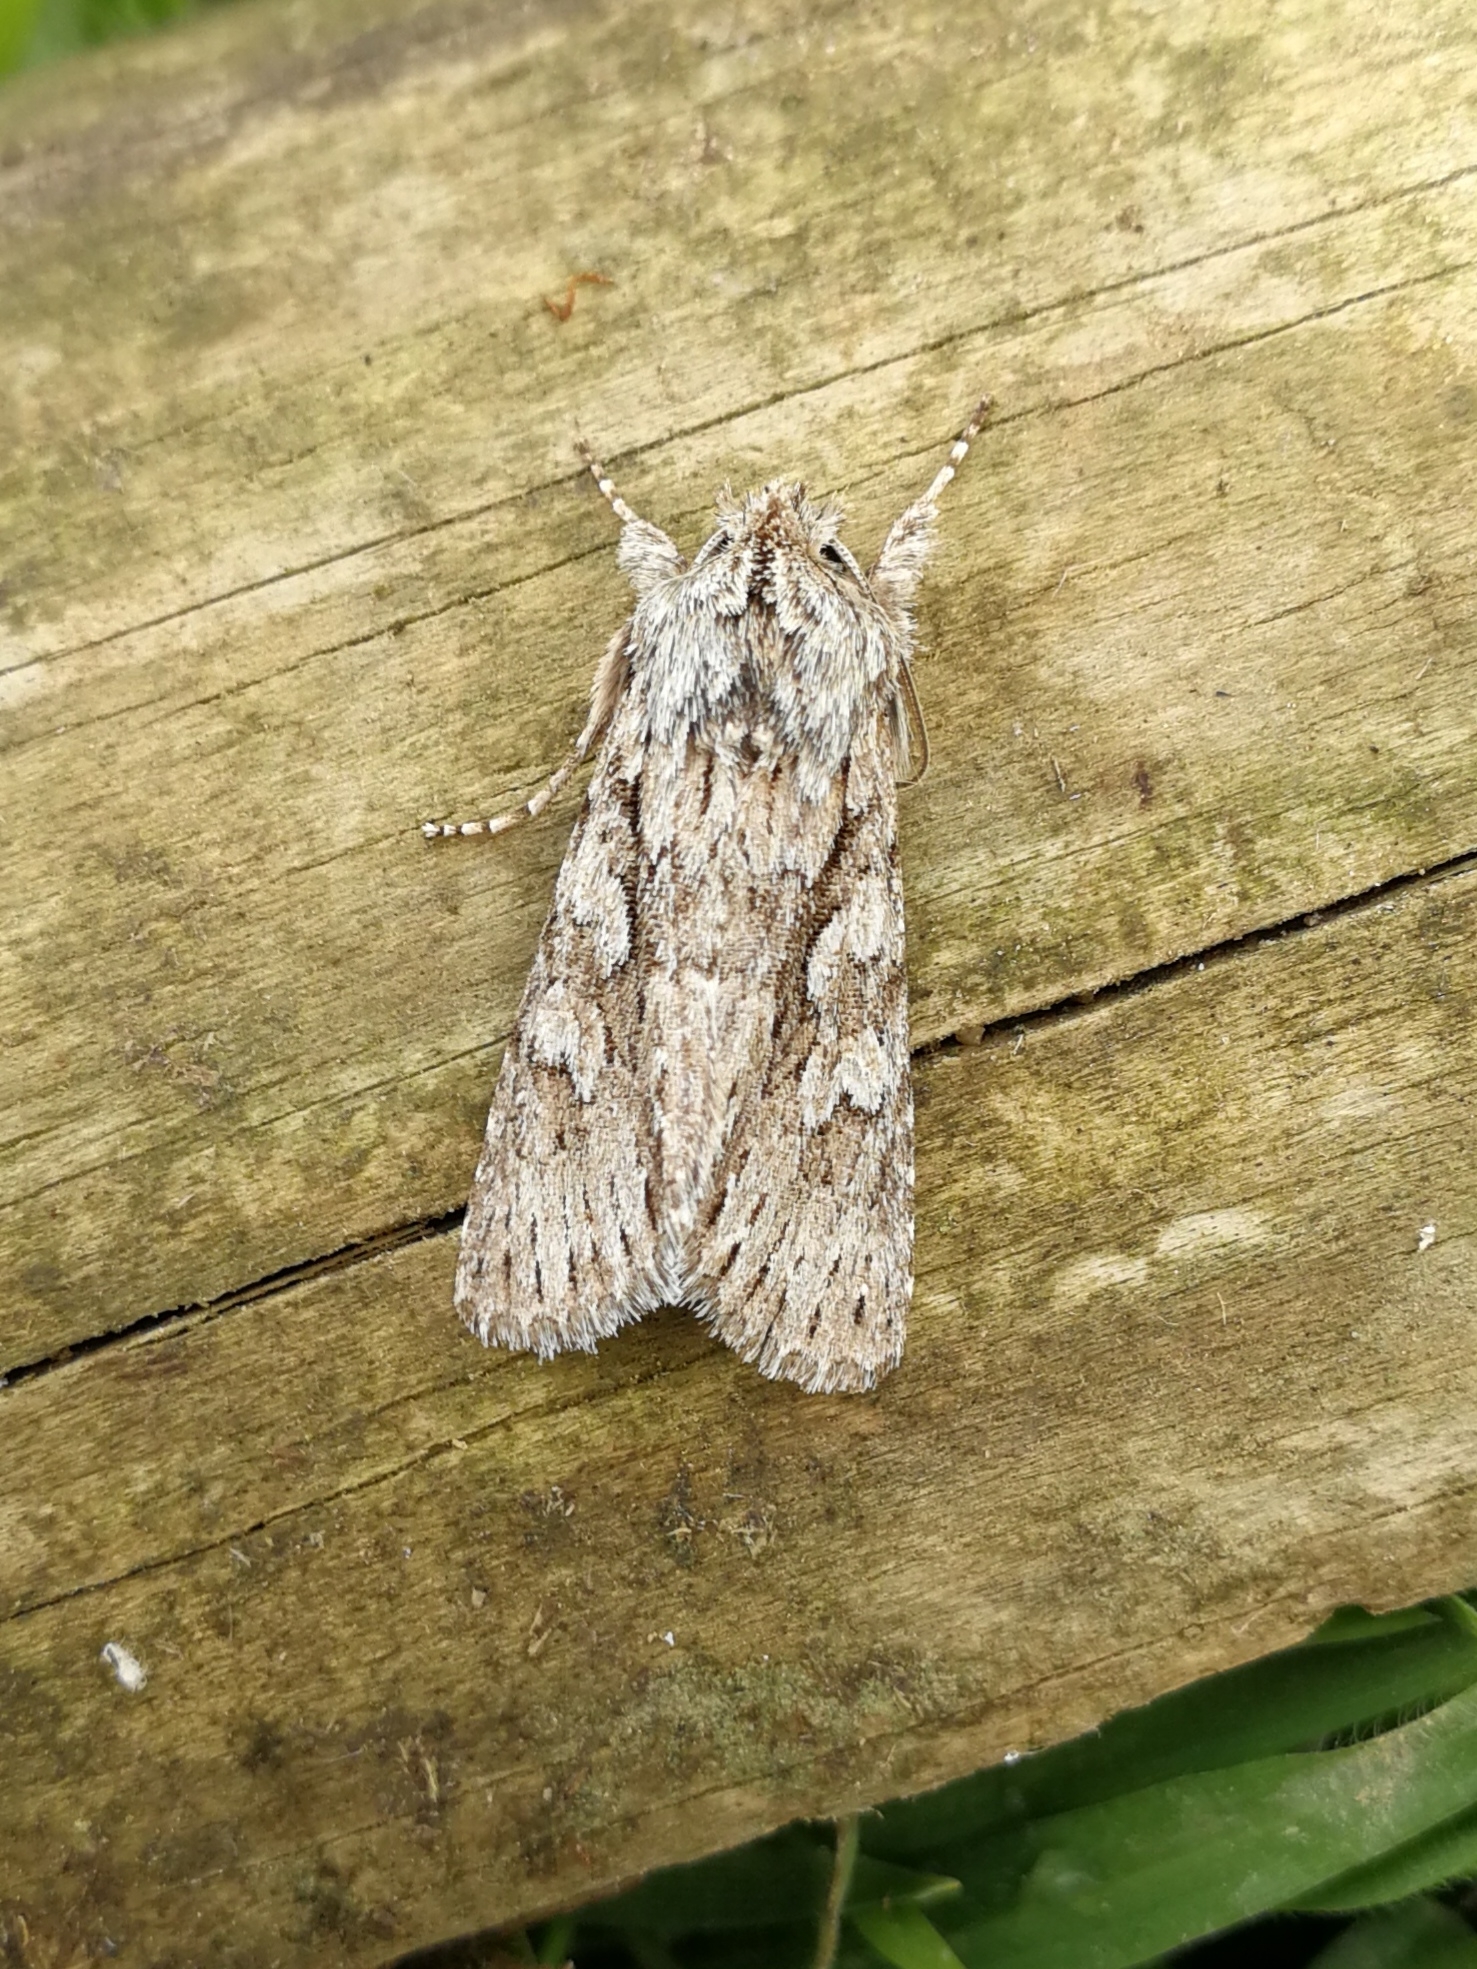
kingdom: Animalia
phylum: Arthropoda
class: Insecta
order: Lepidoptera
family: Noctuidae
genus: Xylocampa
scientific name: Xylocampa areola
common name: Early grey
